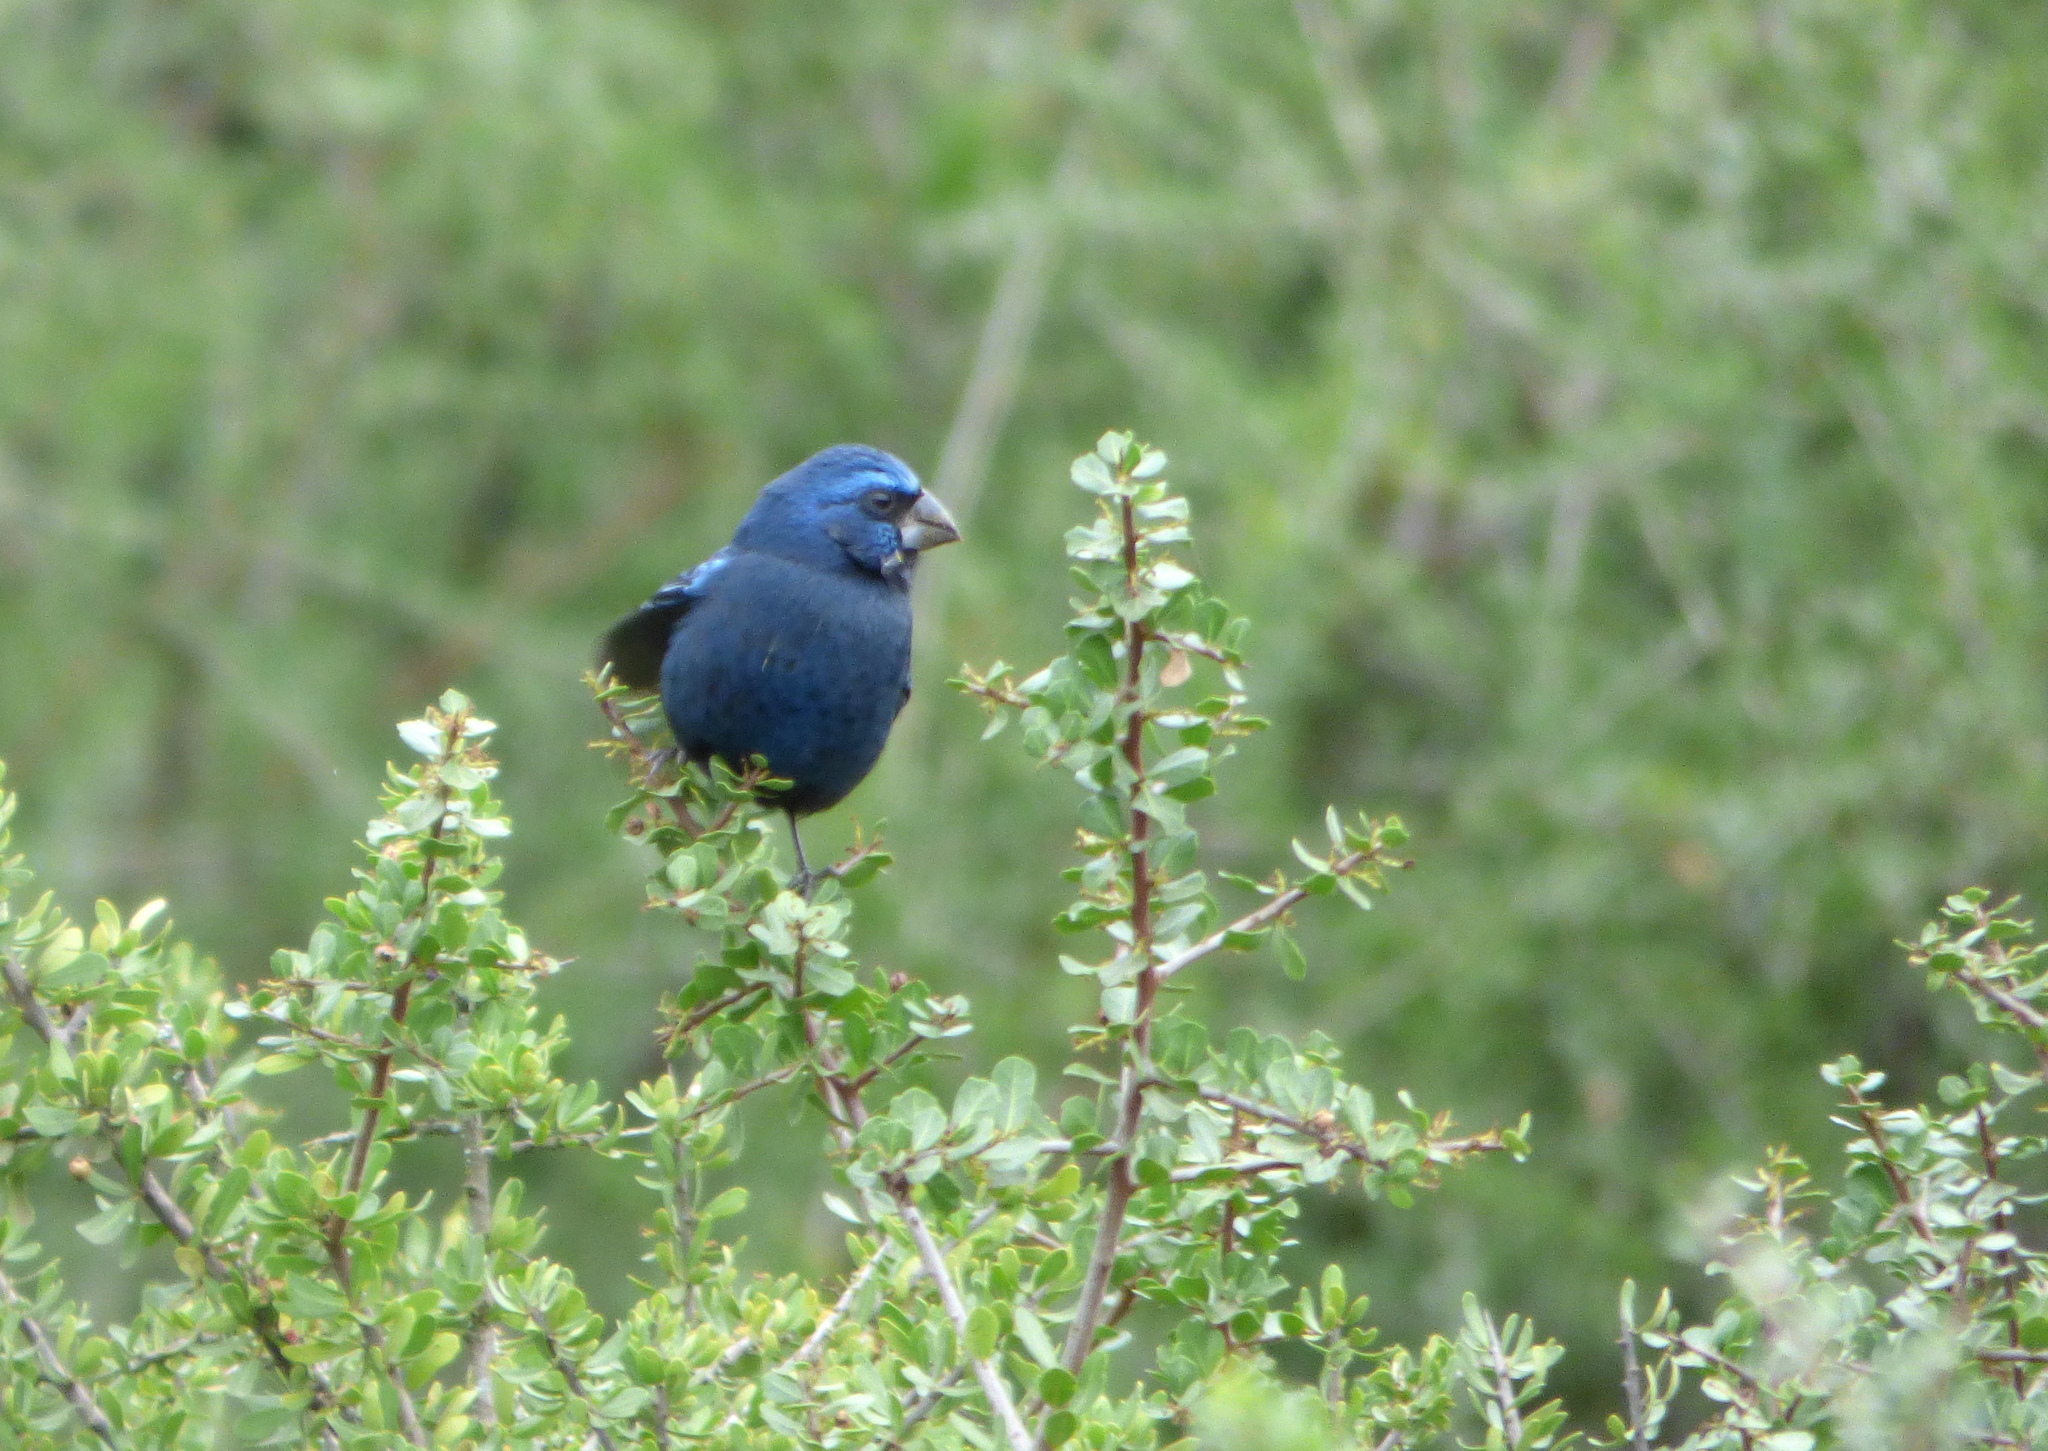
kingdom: Animalia
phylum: Chordata
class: Aves
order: Passeriformes
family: Cardinalidae
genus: Cyanoloxia
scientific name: Cyanoloxia brissonii
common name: Ultramarine grosbeak
